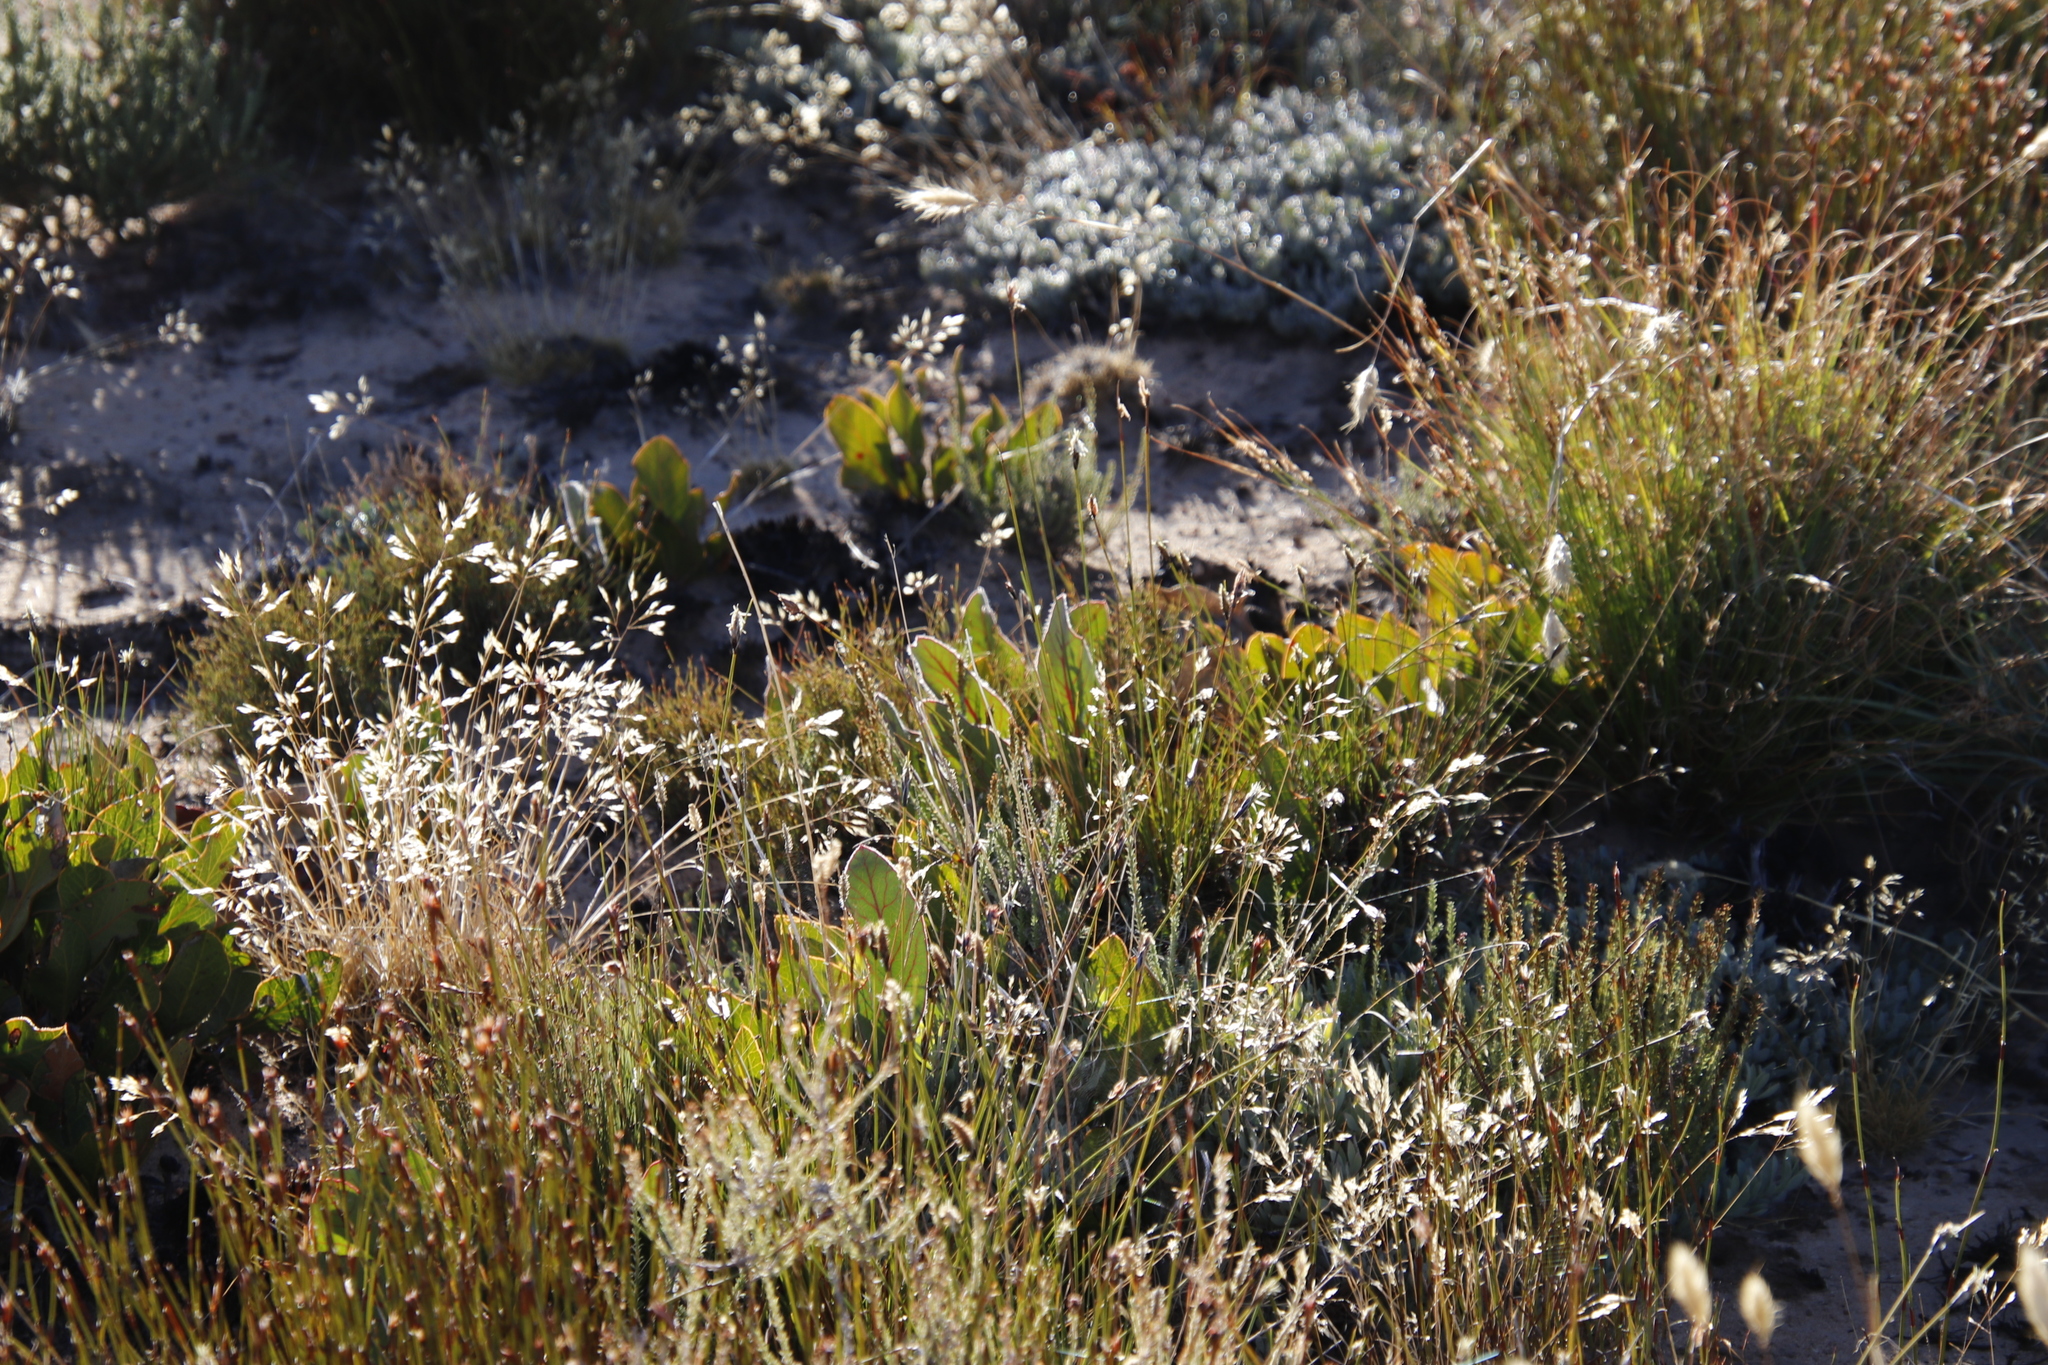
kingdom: Plantae
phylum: Tracheophyta
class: Magnoliopsida
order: Proteales
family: Proteaceae
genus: Protea
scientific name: Protea scolopendriifolia
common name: Harts-tongue-fern sugarbush
